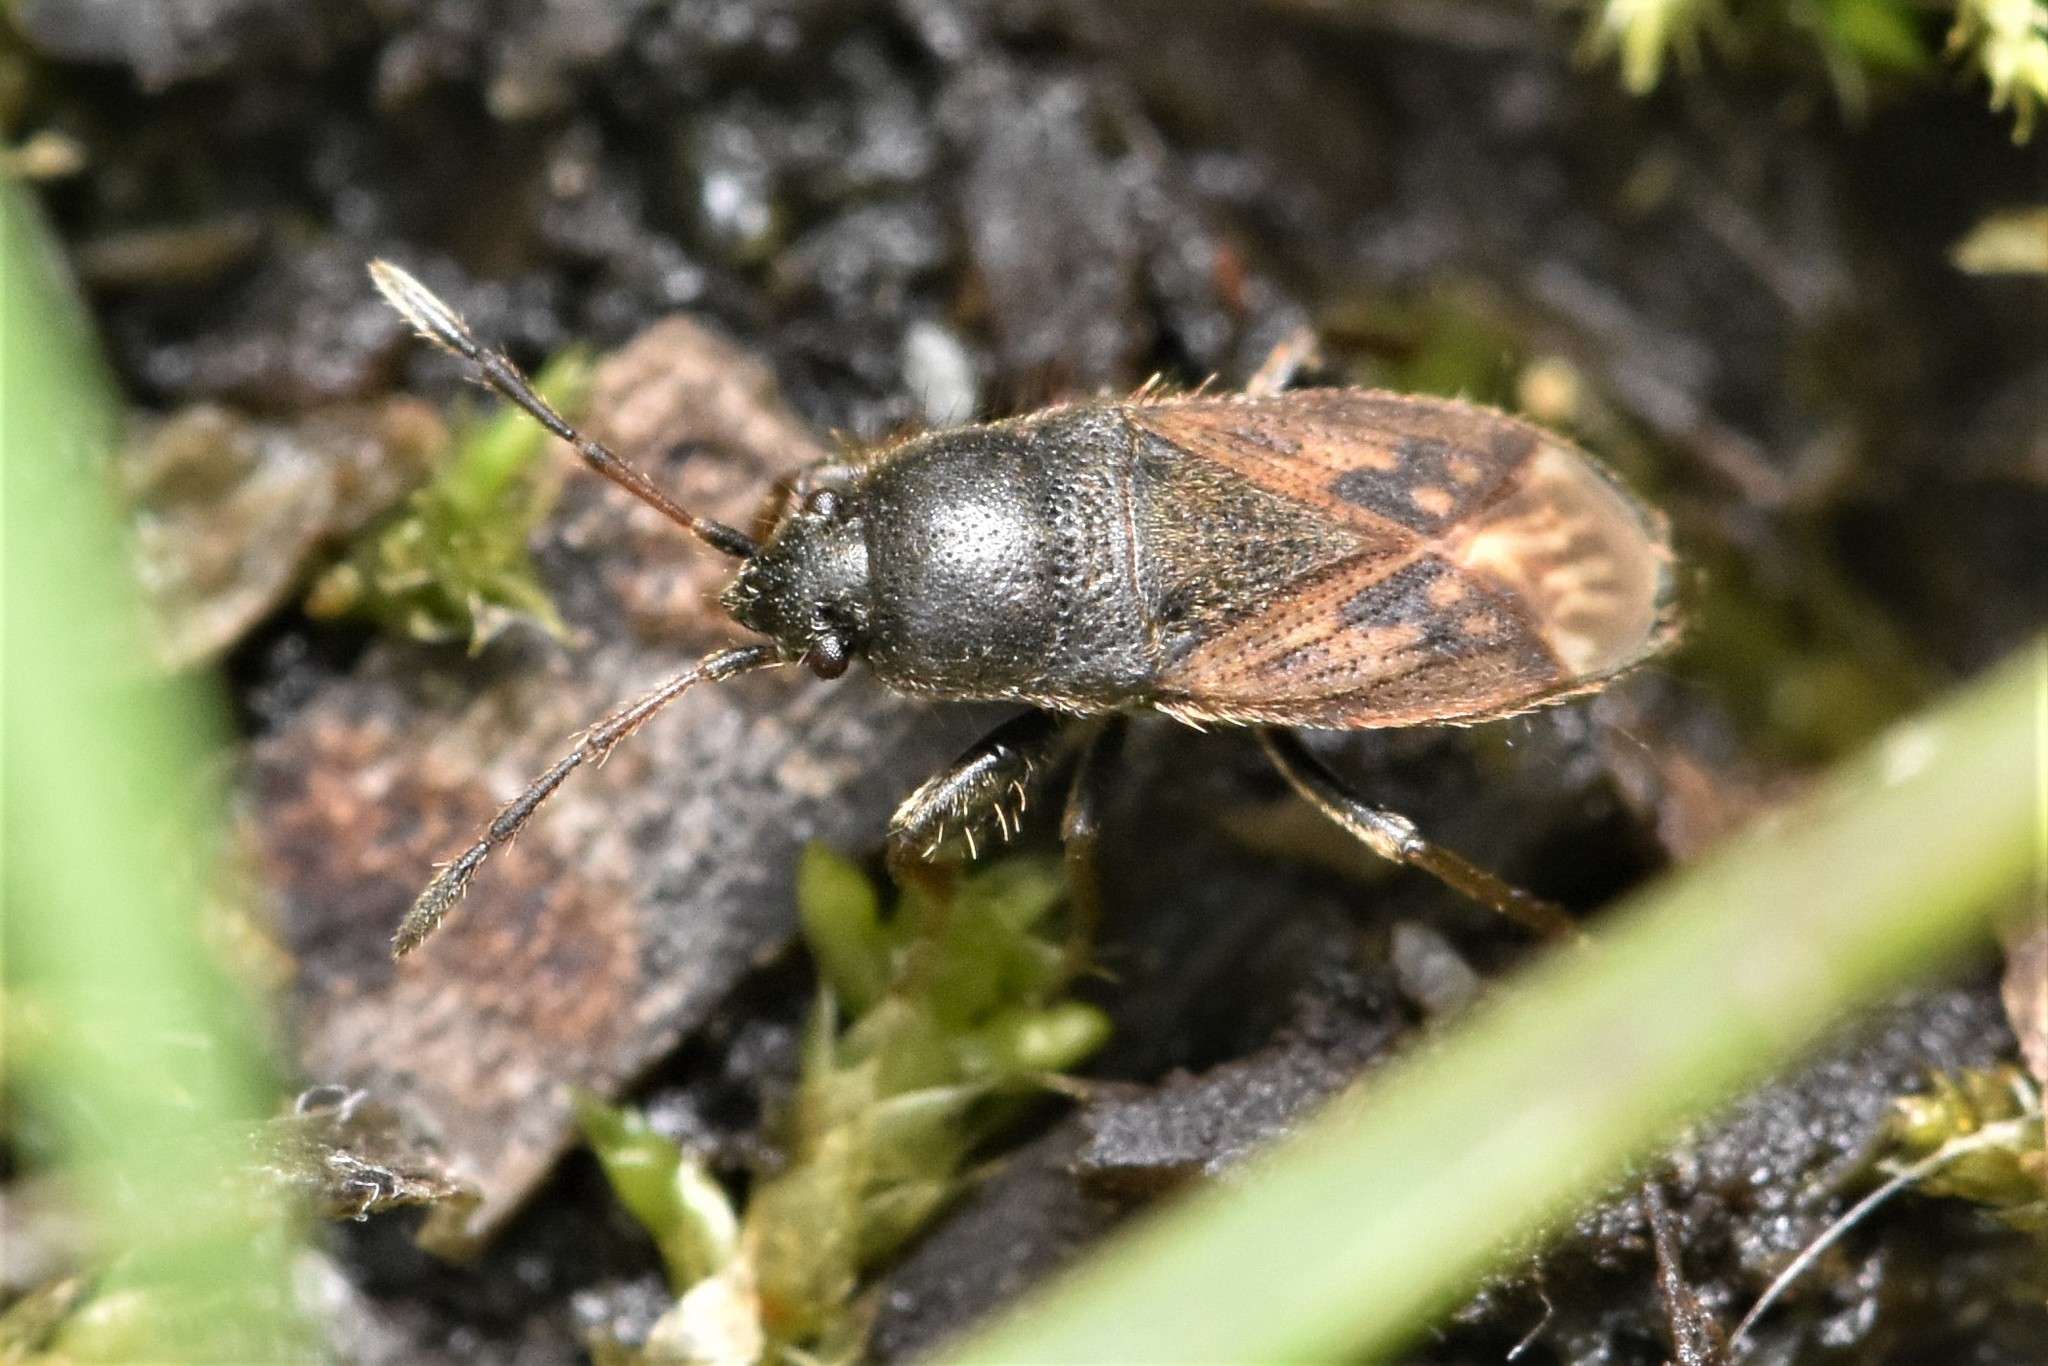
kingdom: Animalia
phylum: Arthropoda
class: Insecta
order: Hemiptera
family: Rhyparochromidae
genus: Megalonotus
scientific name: Megalonotus sabulicola
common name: Seed bug
